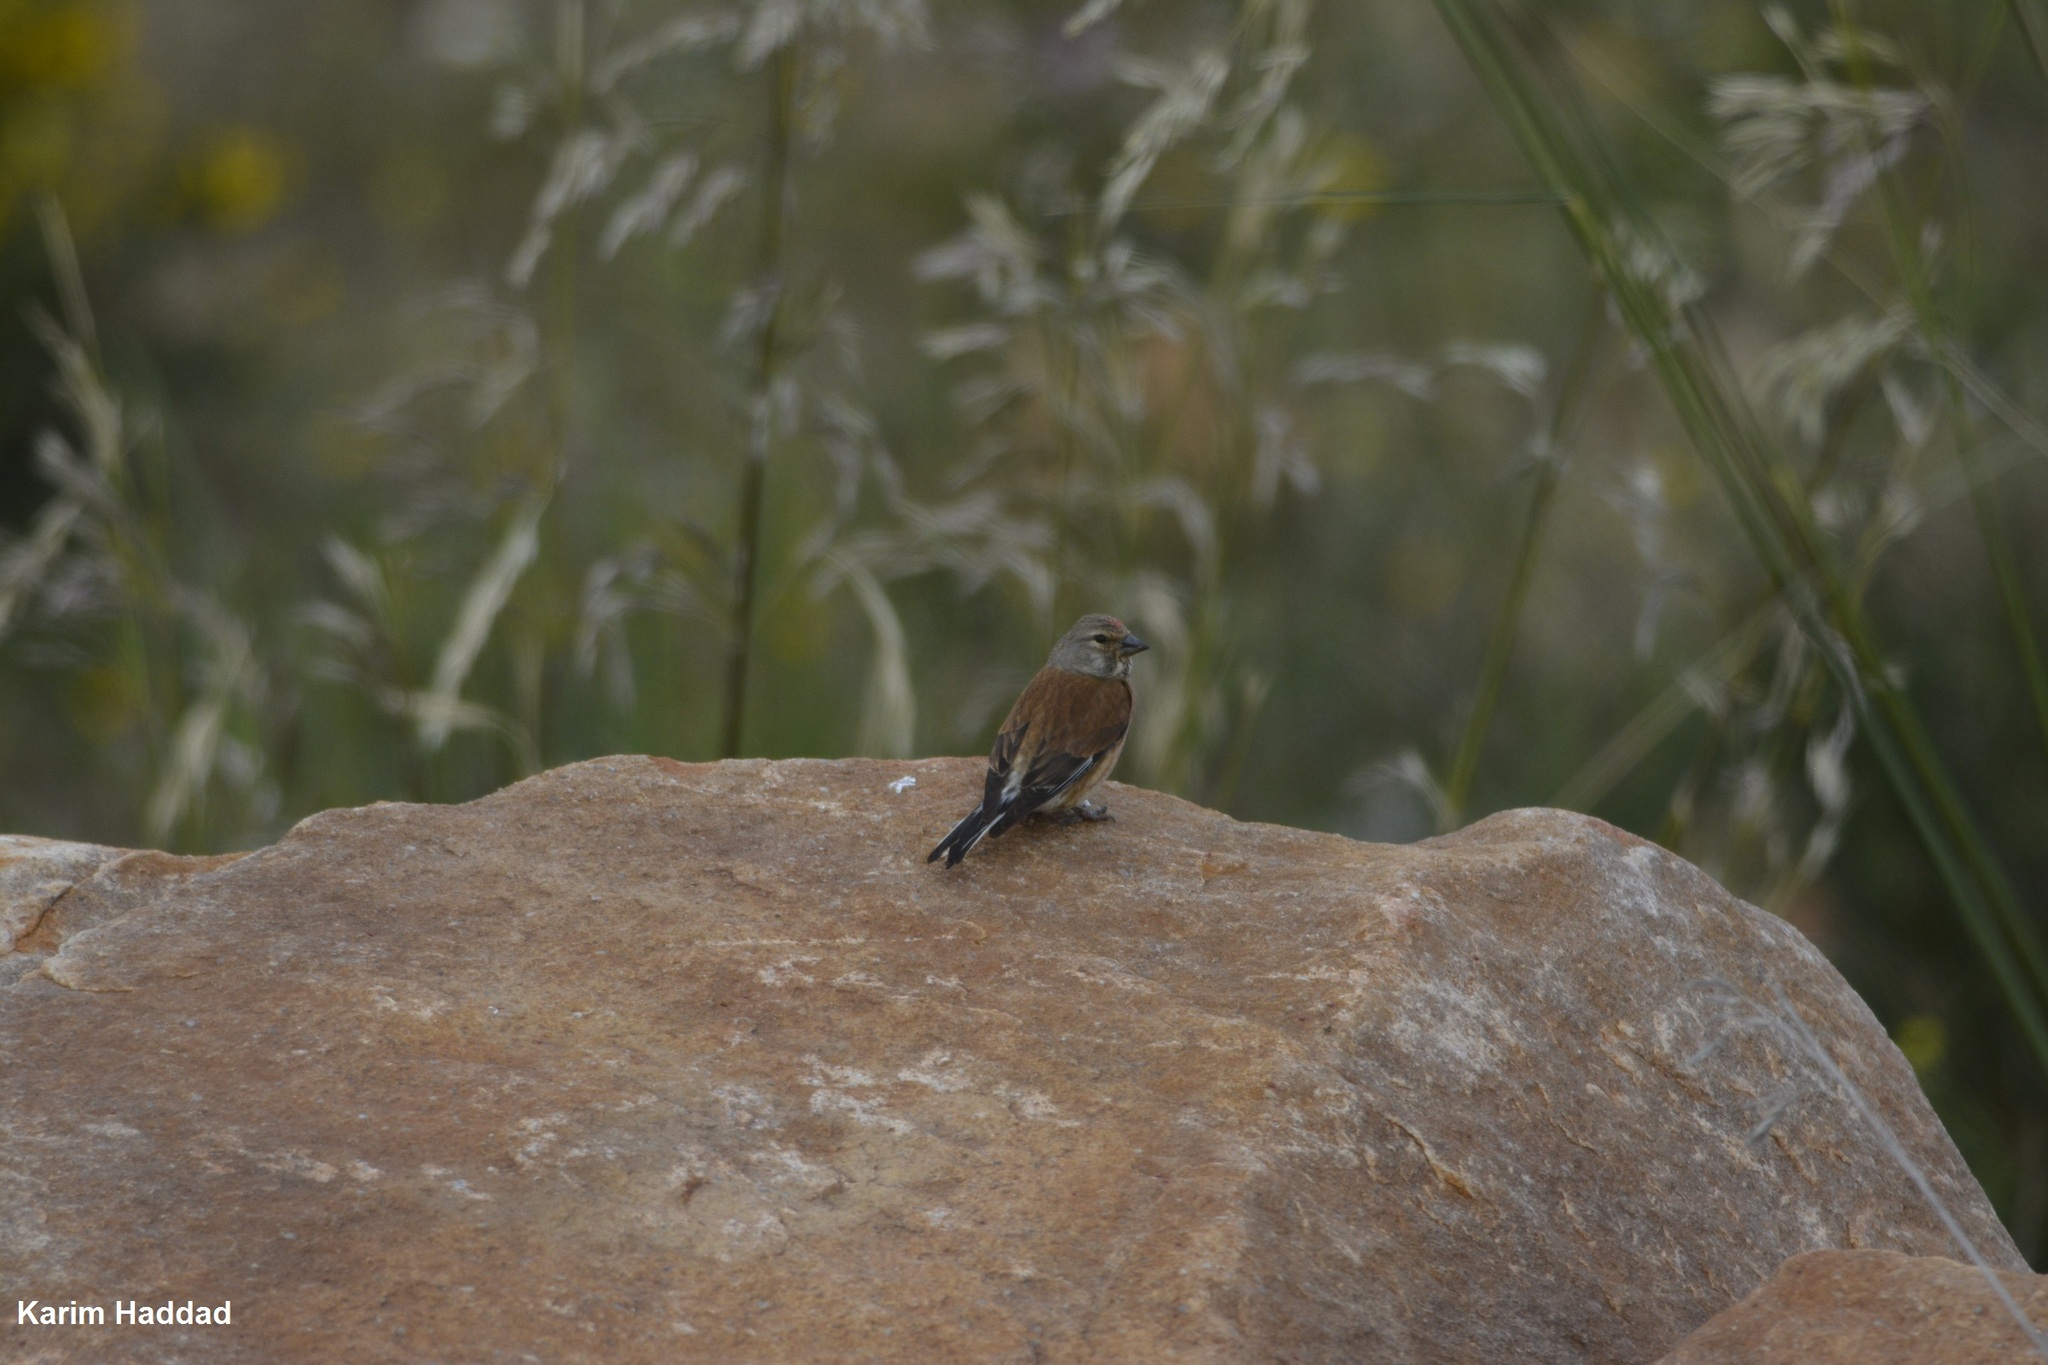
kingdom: Animalia
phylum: Chordata
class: Aves
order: Passeriformes
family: Fringillidae
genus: Linaria
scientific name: Linaria cannabina
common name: Common linnet
